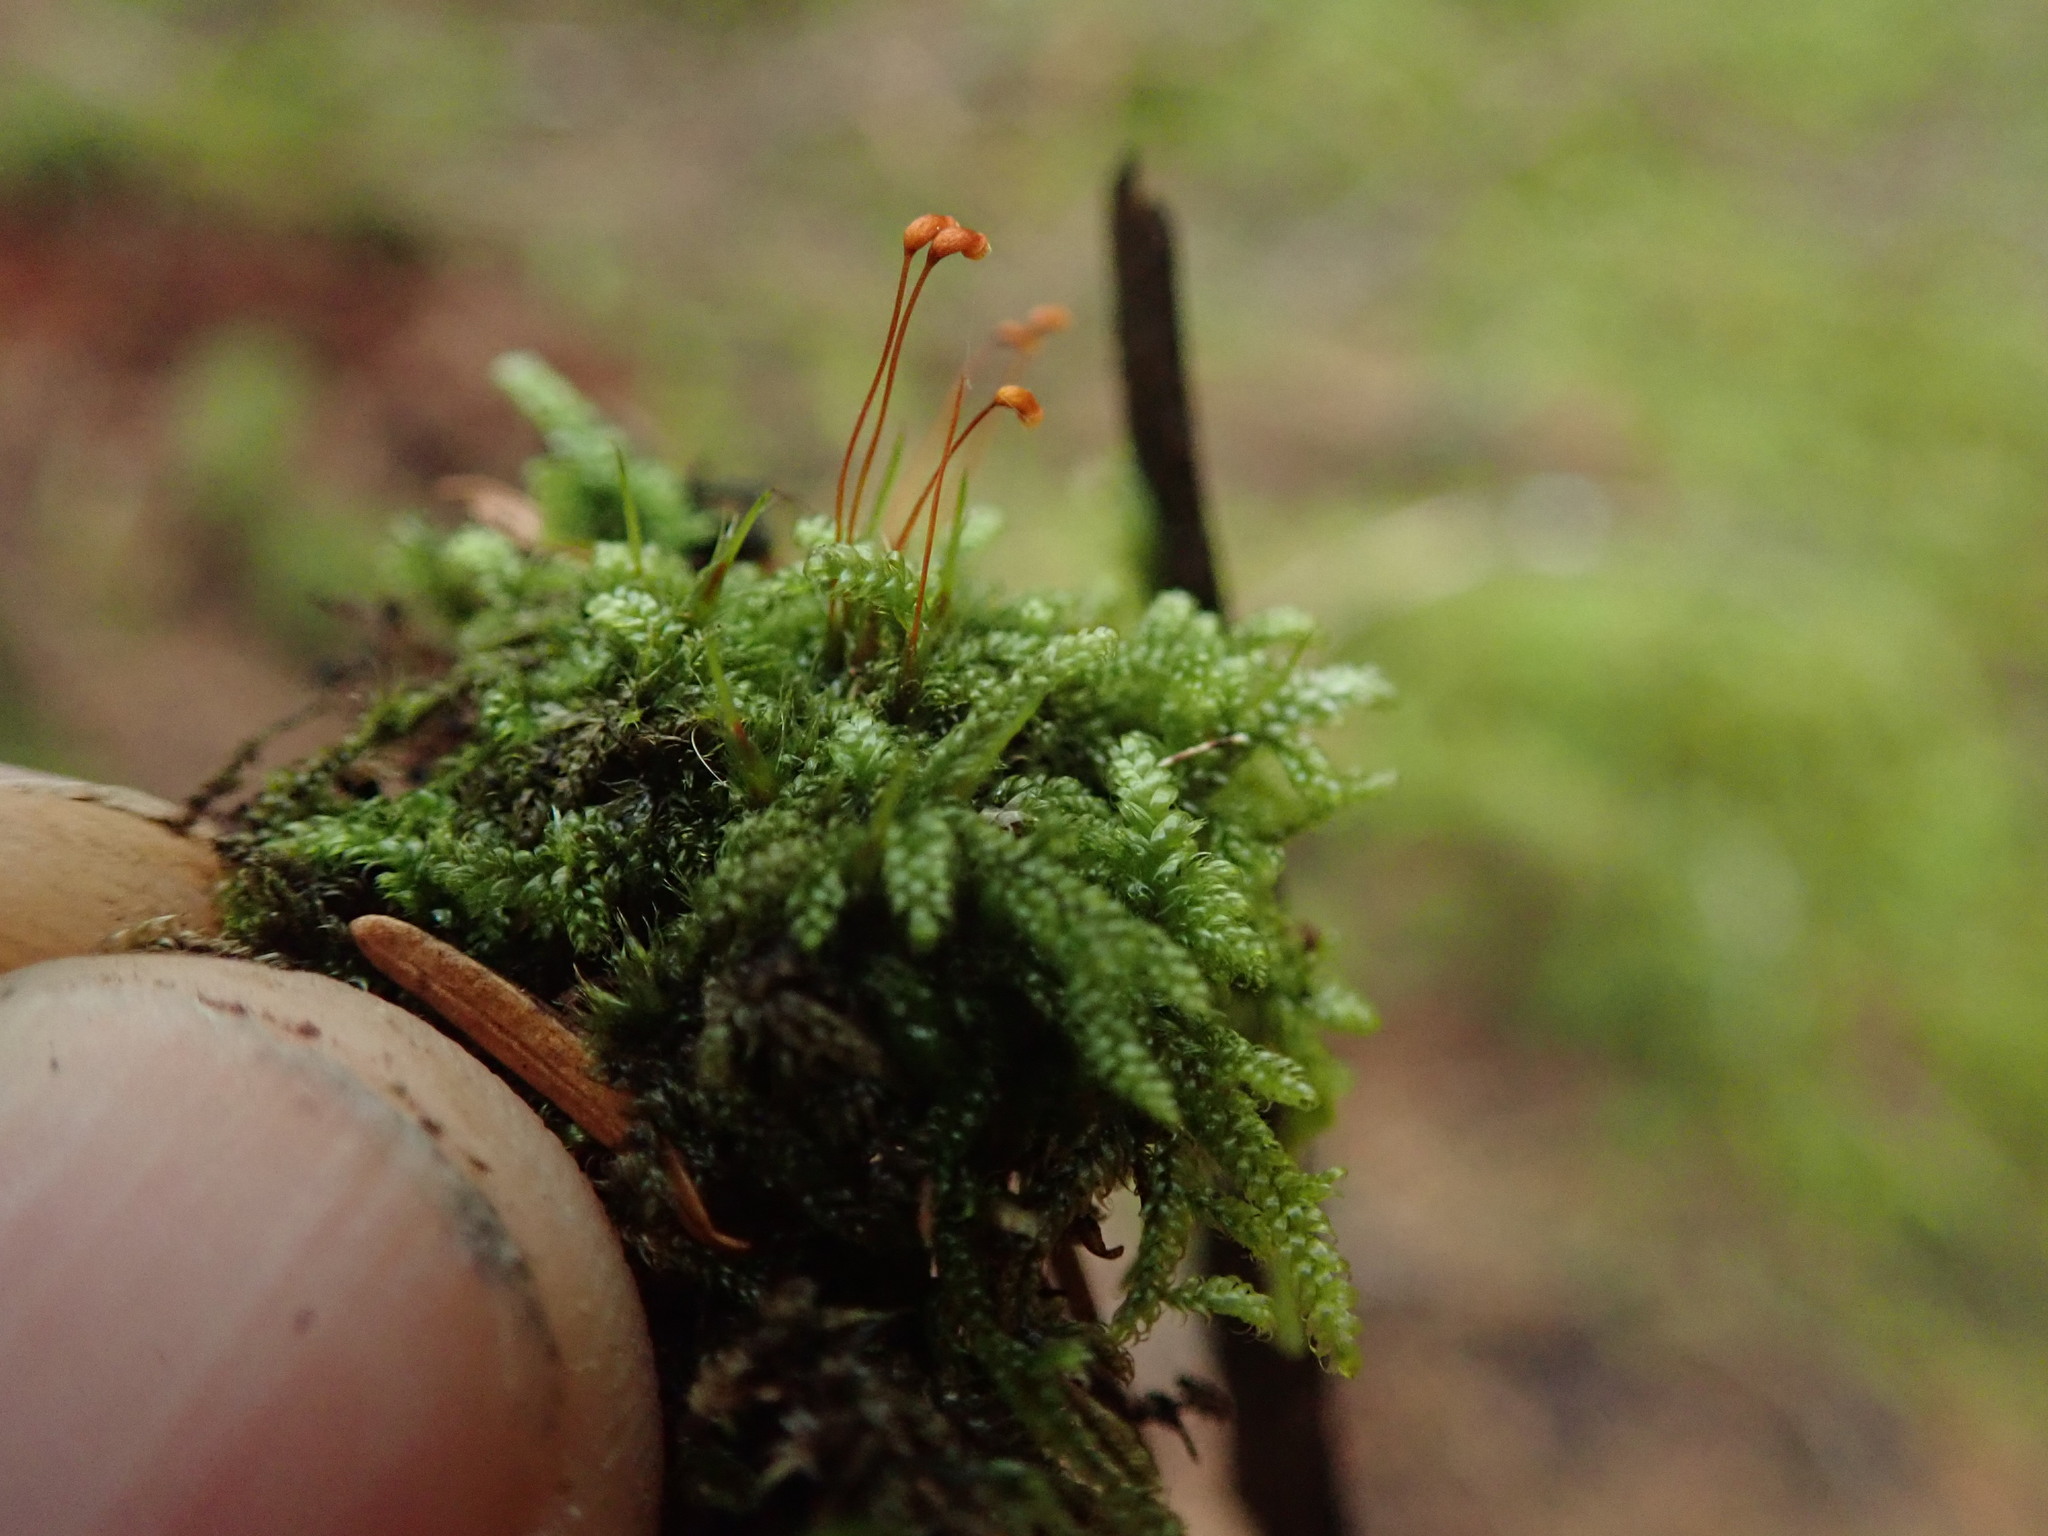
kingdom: Plantae
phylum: Bryophyta
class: Bryopsida
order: Hypnales
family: Pylaisiadelphaceae
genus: Trochophyllohypnum
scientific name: Trochophyllohypnum circinale
